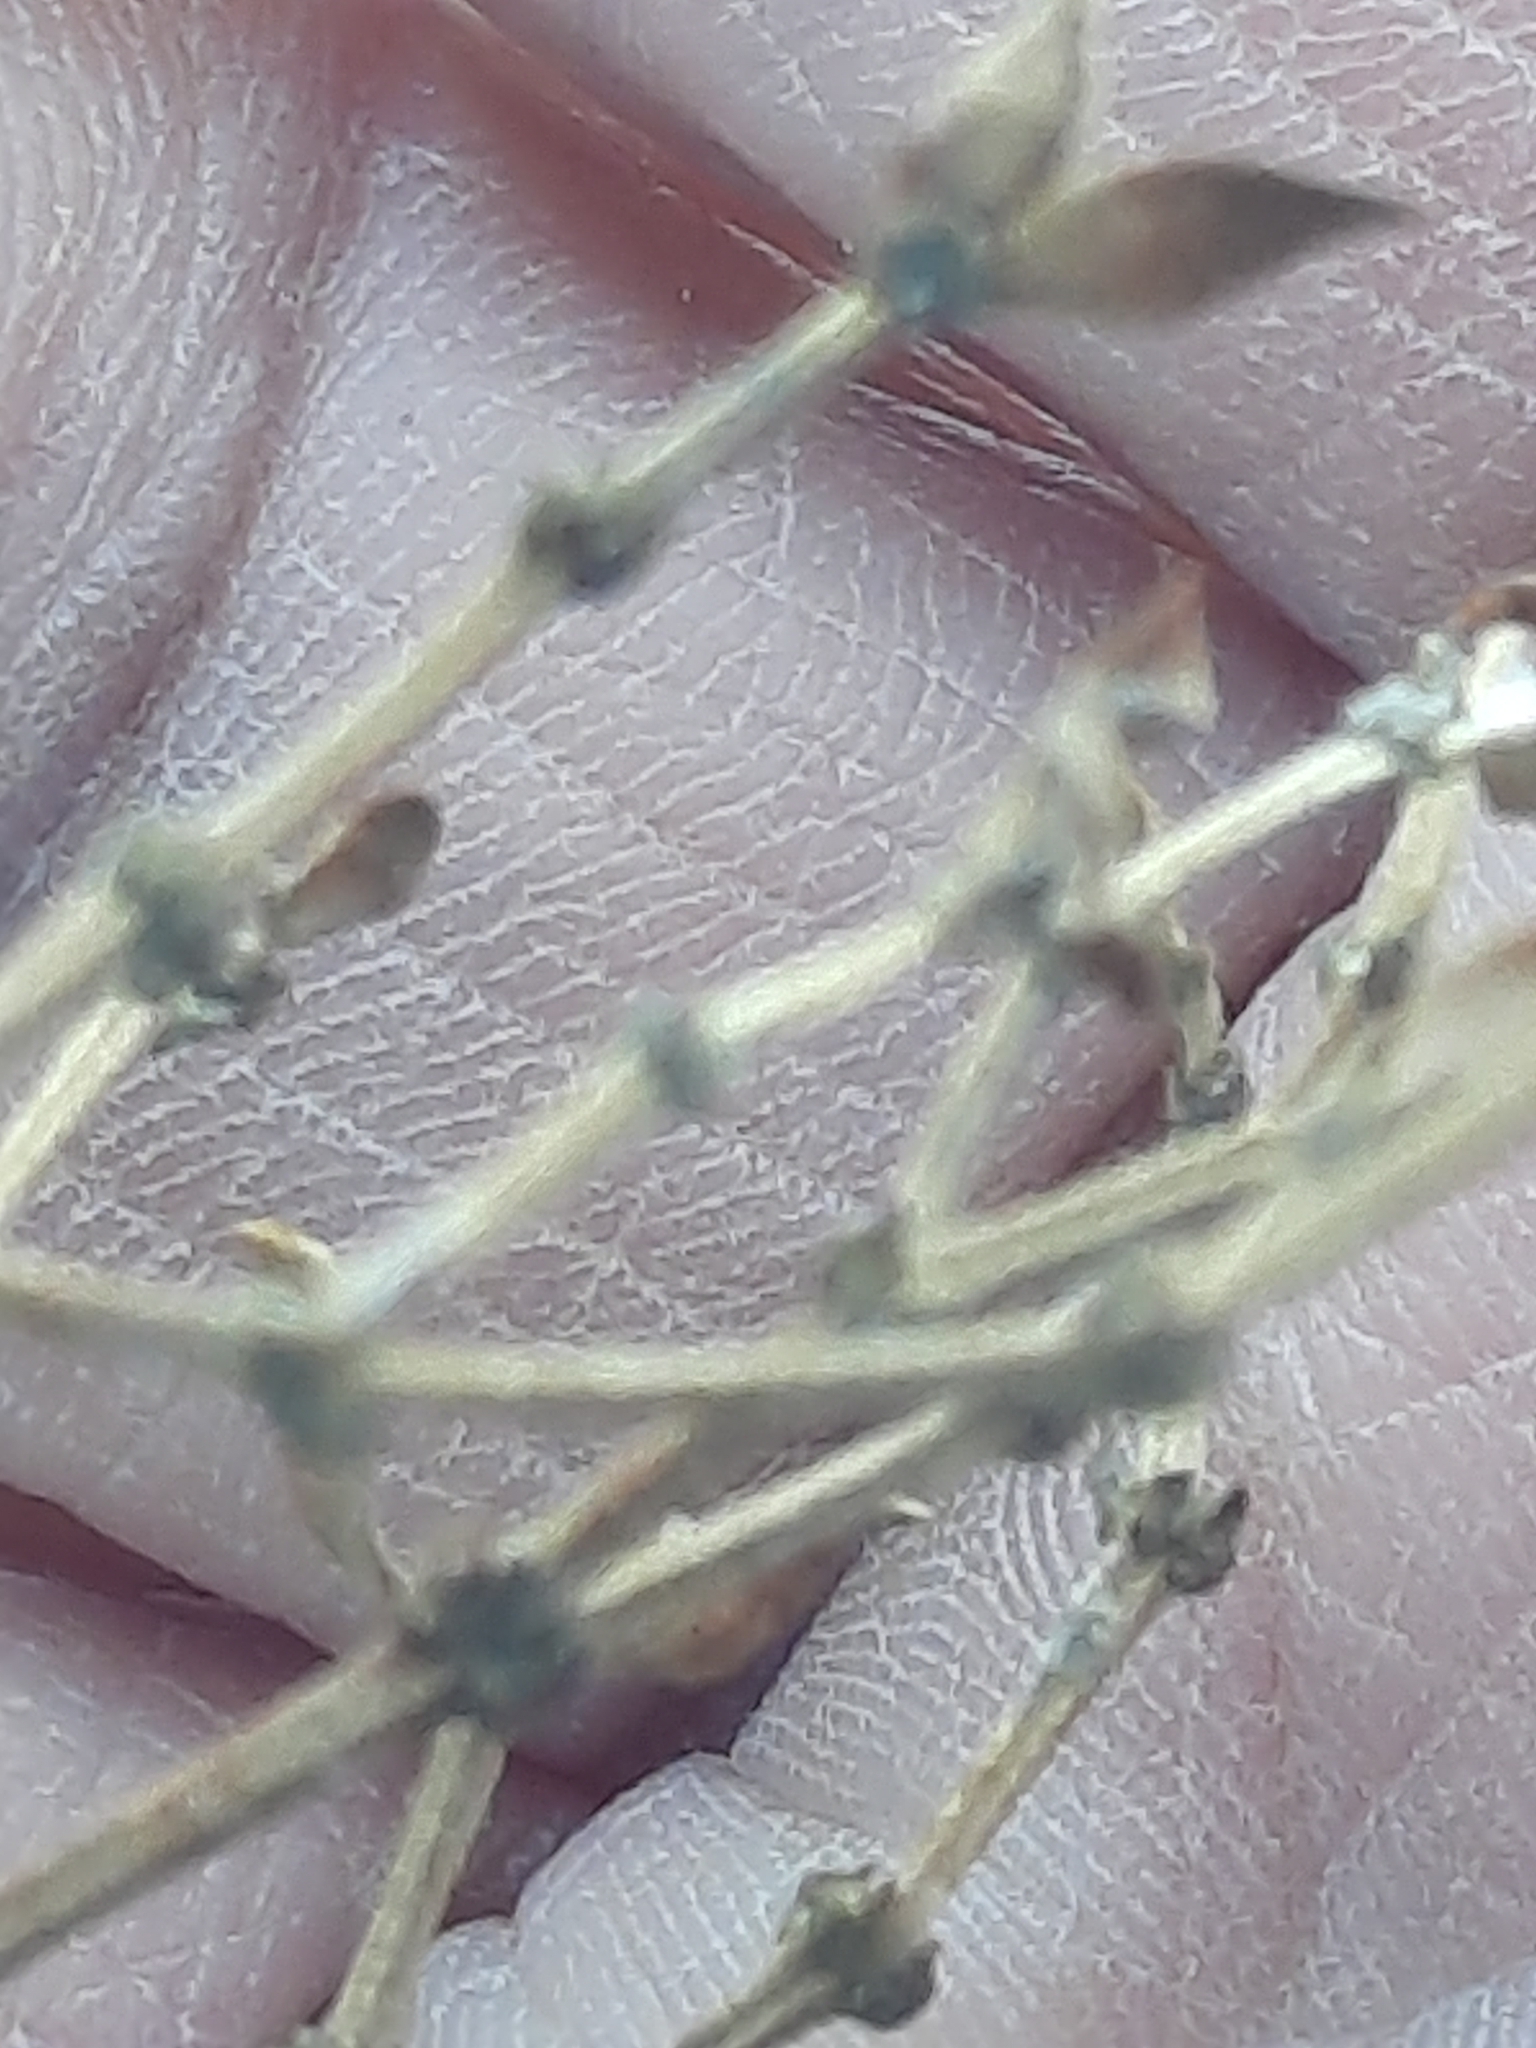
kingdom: Plantae
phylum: Tracheophyta
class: Magnoliopsida
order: Zygophyllales
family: Zygophyllaceae
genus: Larrea
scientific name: Larrea tridentata
